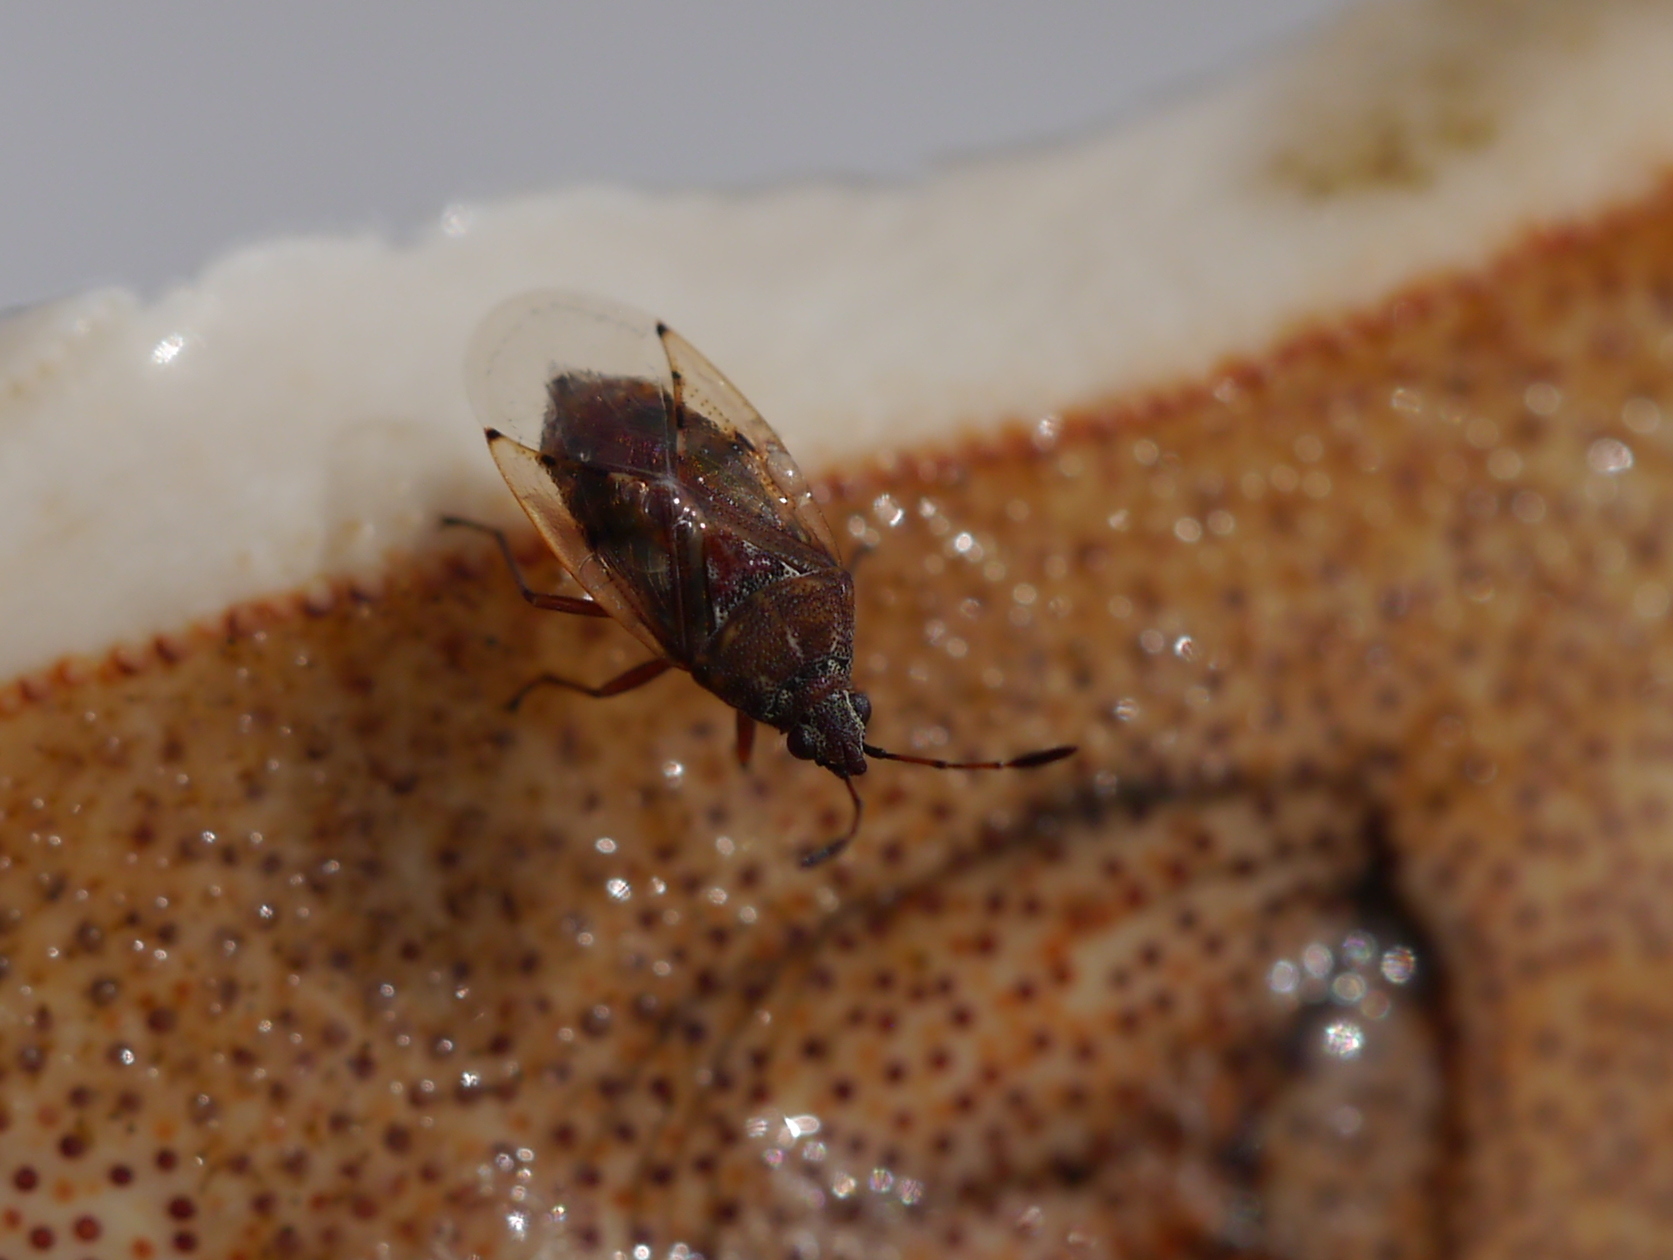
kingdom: Animalia
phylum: Arthropoda
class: Insecta
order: Hemiptera
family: Lygaeidae
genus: Kleidocerys
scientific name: Kleidocerys
